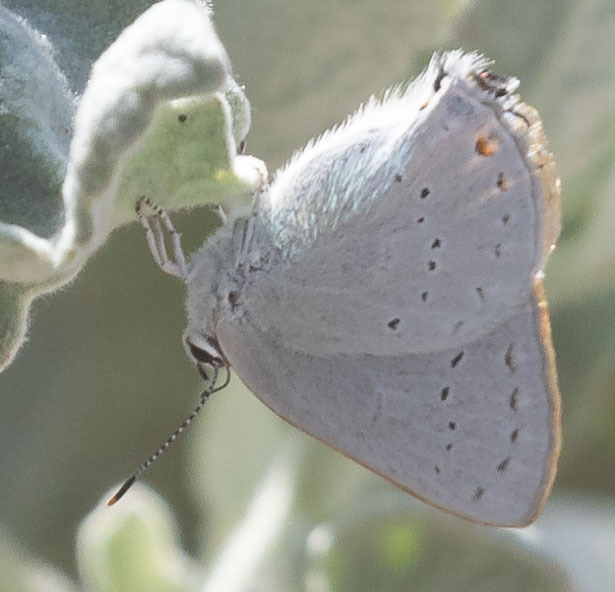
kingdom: Animalia
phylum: Arthropoda
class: Insecta
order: Lepidoptera
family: Lycaenidae
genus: Thecla
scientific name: Thecla dryope
